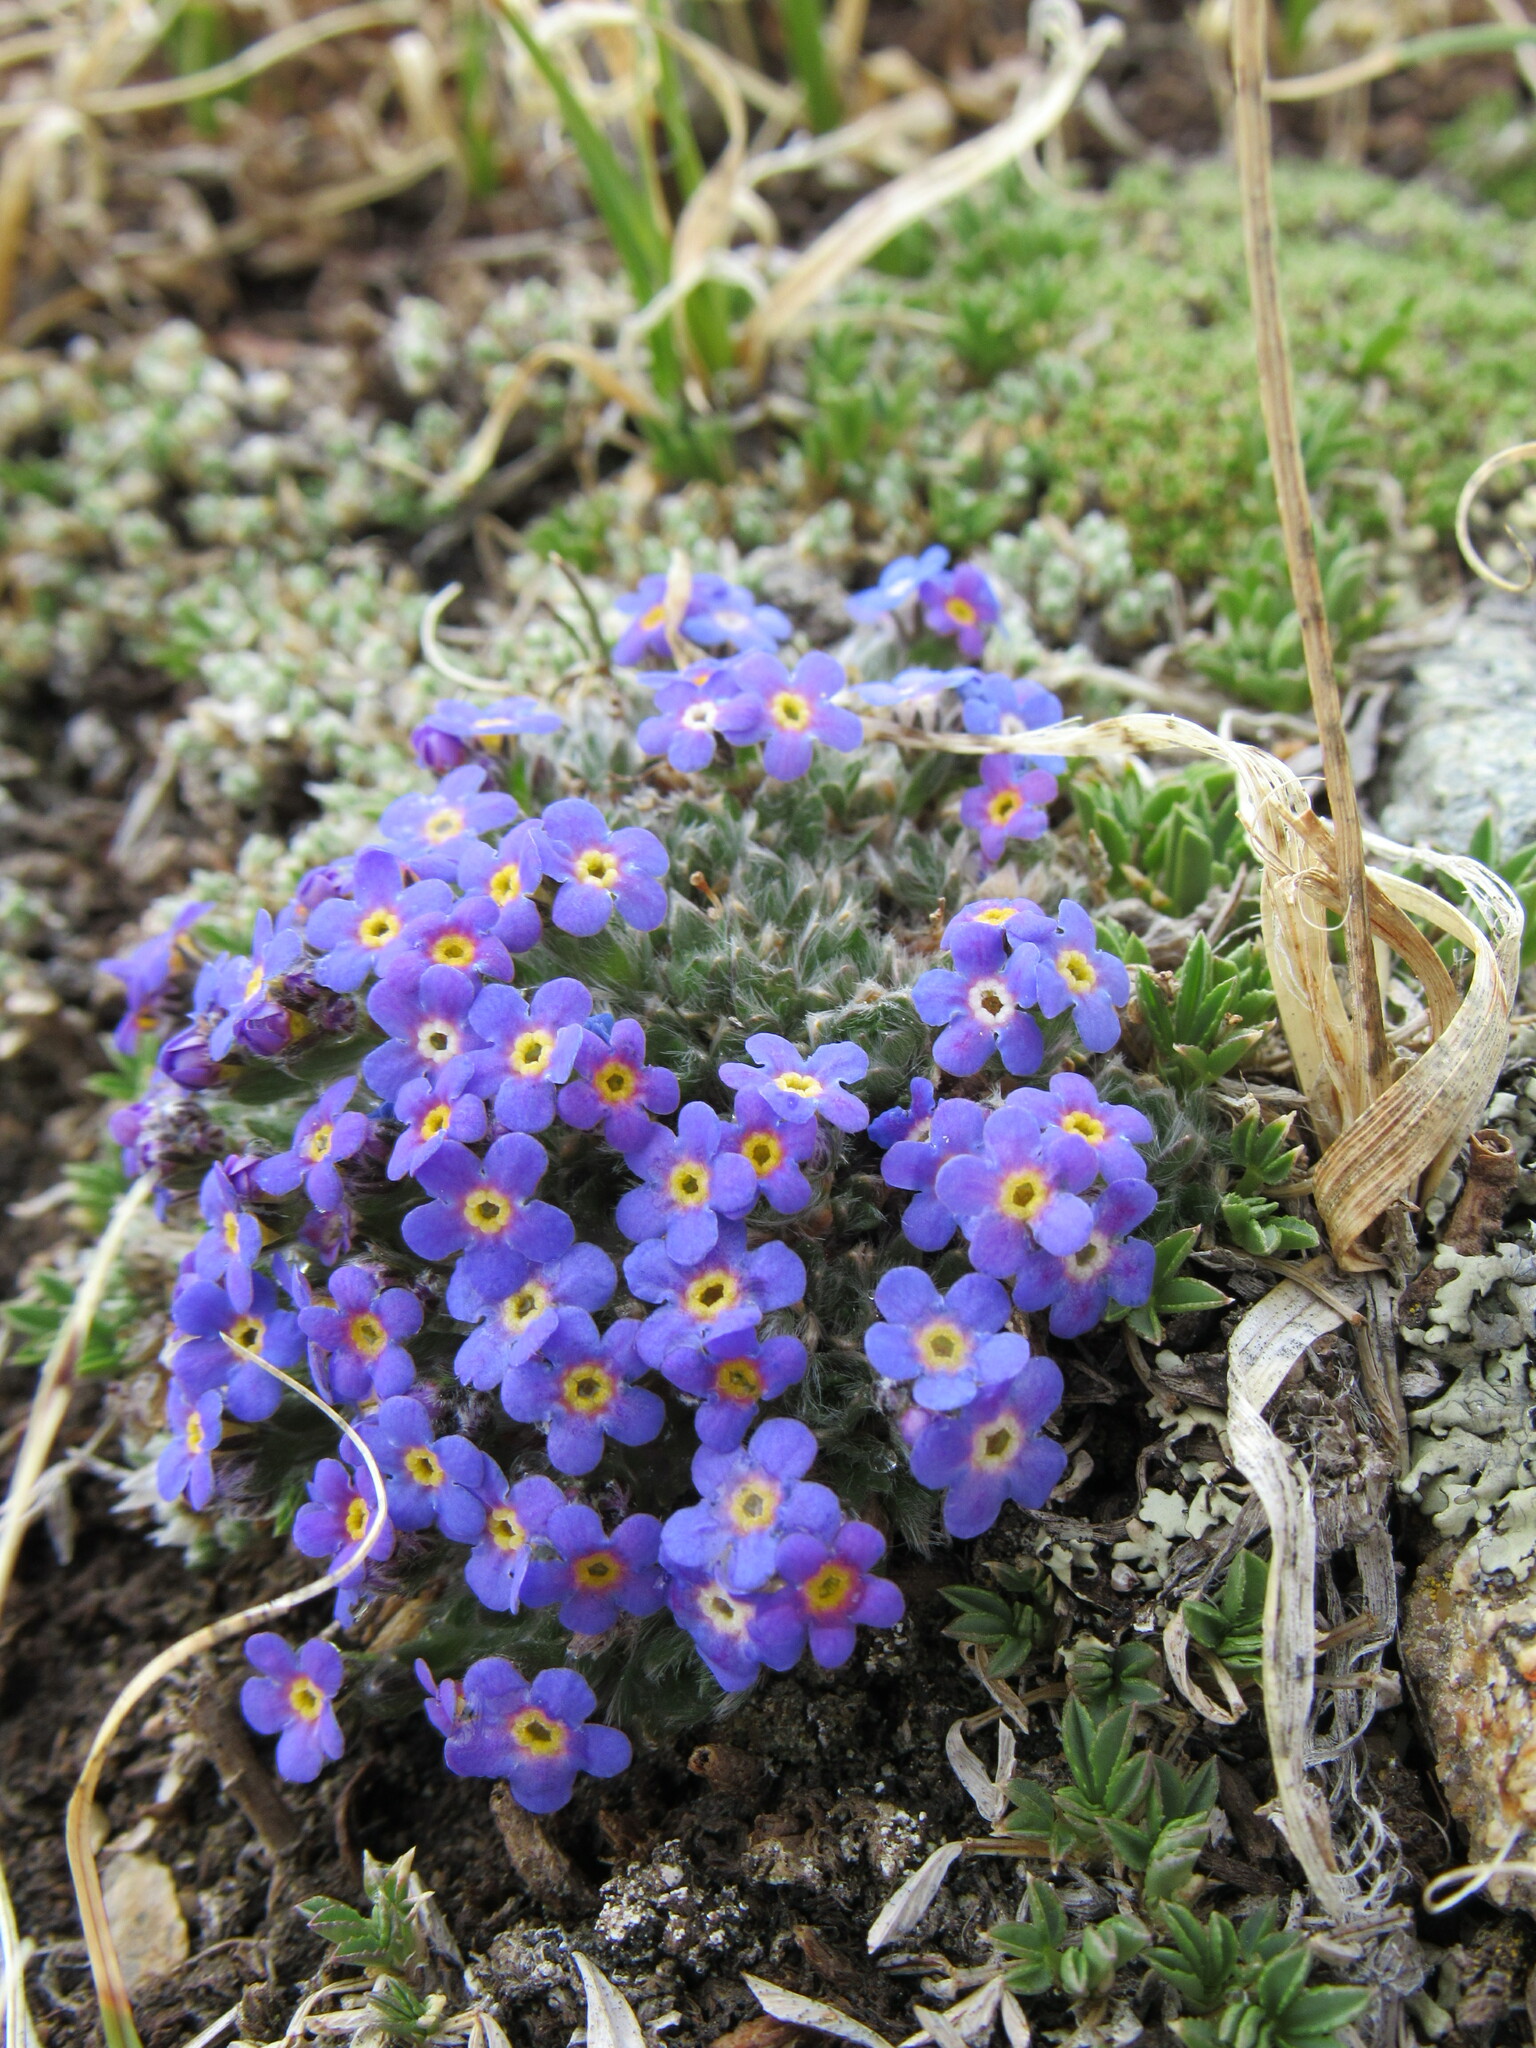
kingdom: Plantae
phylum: Tracheophyta
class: Magnoliopsida
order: Boraginales
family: Boraginaceae
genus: Eritrichium
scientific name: Eritrichium argenteum
